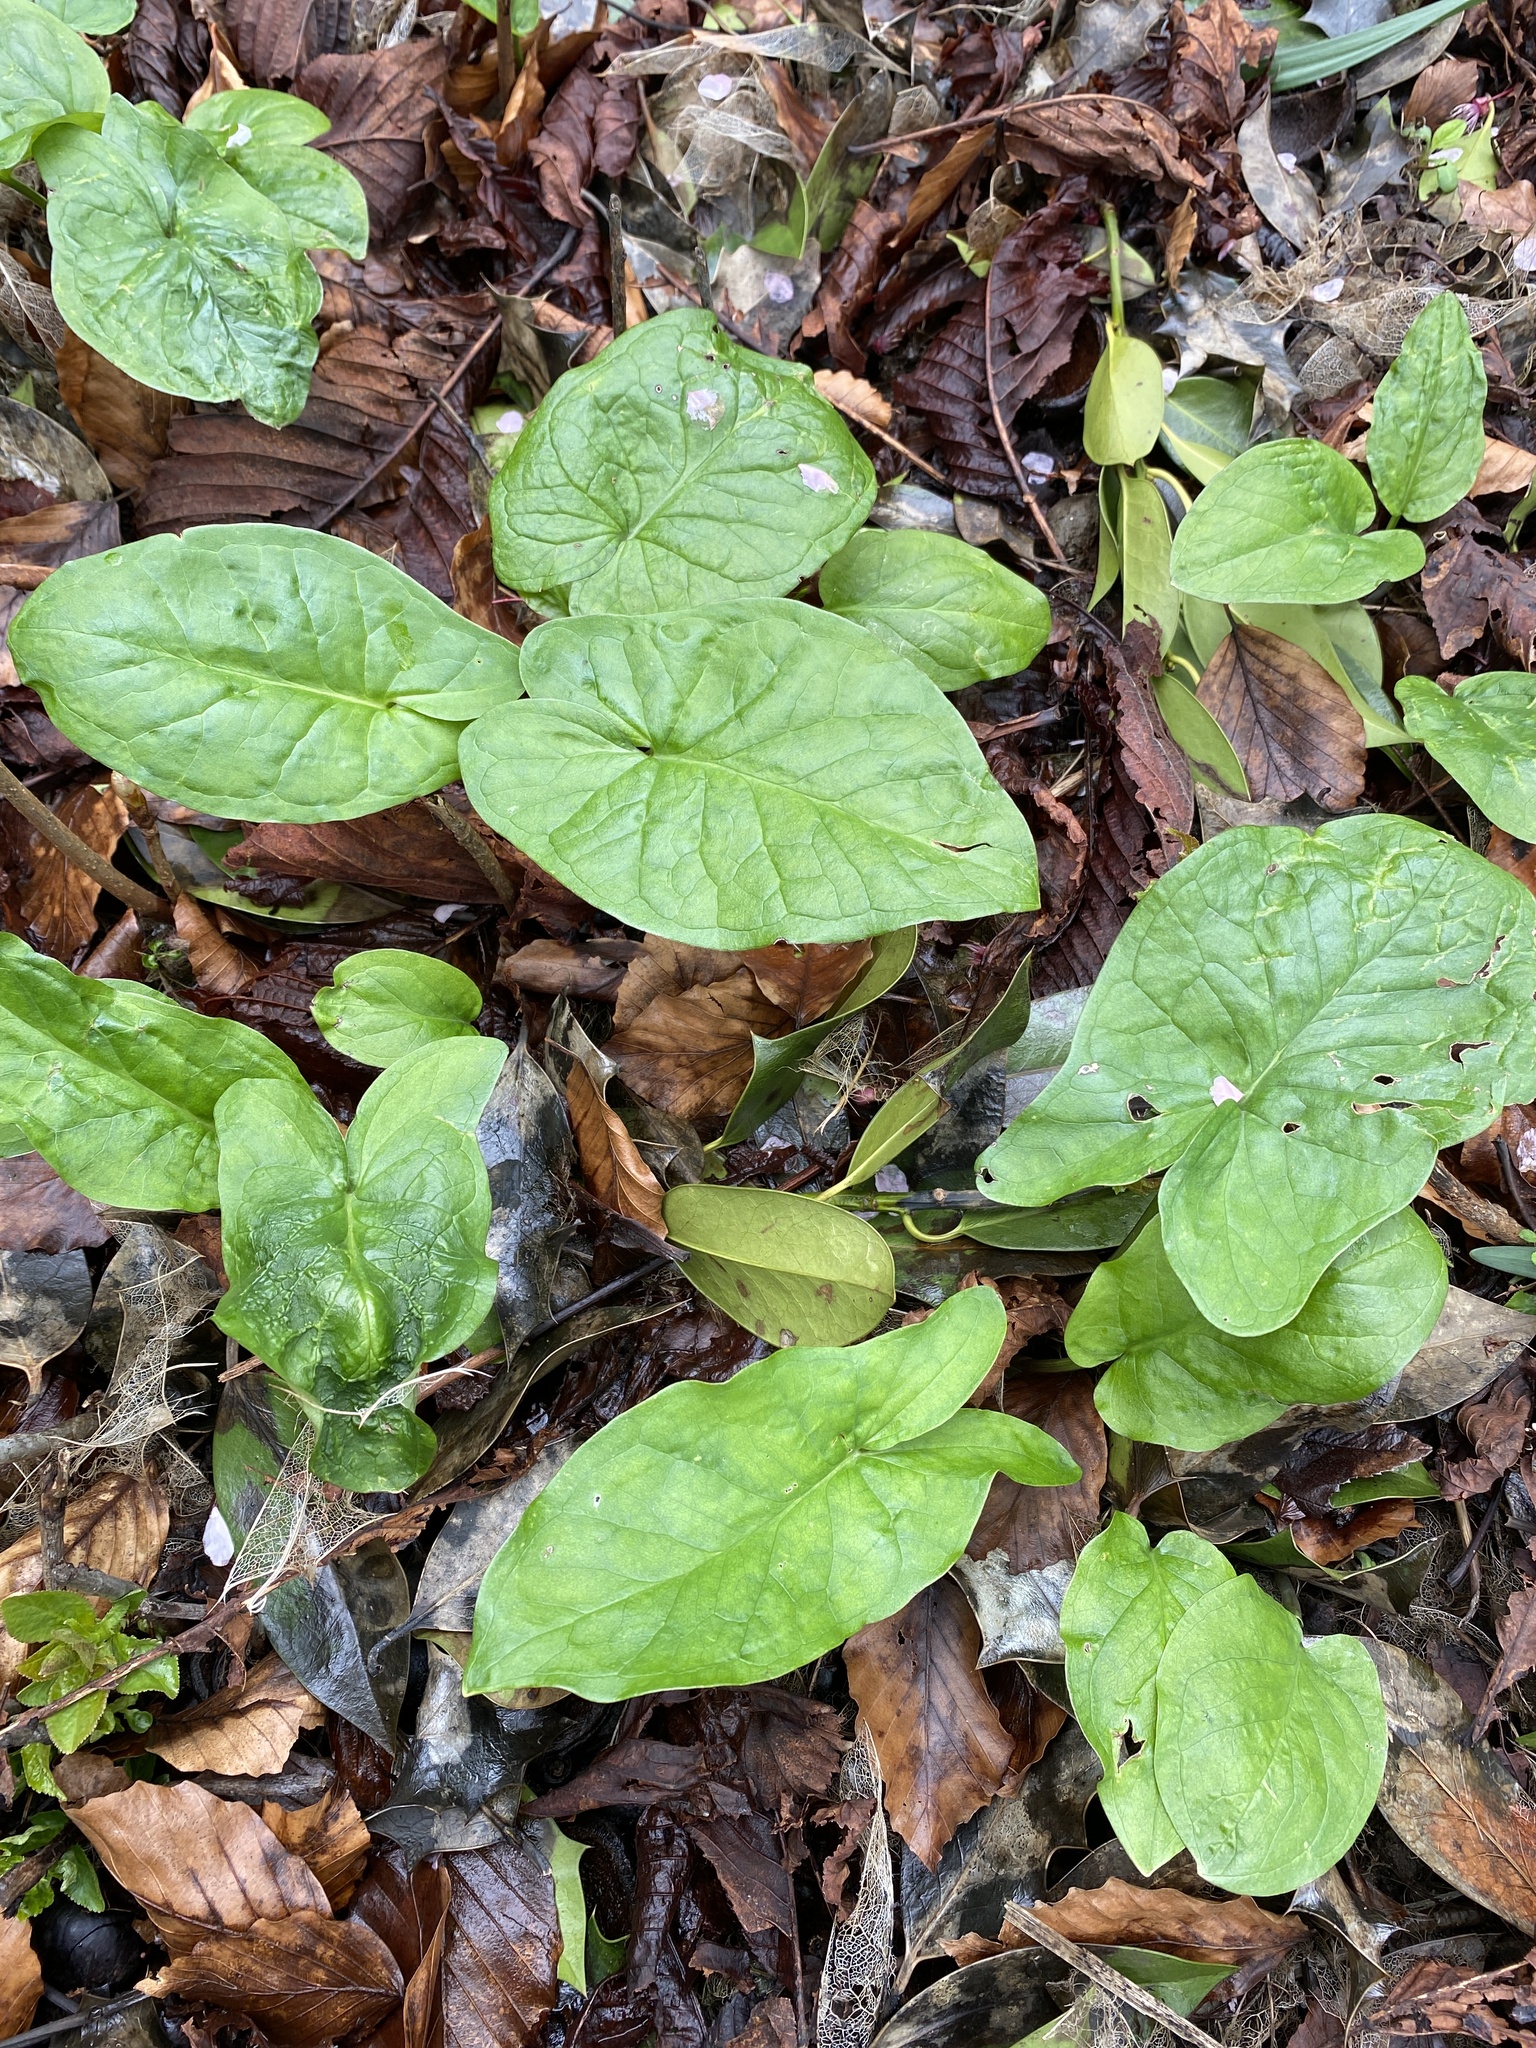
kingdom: Plantae
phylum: Tracheophyta
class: Liliopsida
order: Alismatales
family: Araceae
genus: Arum
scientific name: Arum maculatum
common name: Lords-and-ladies
